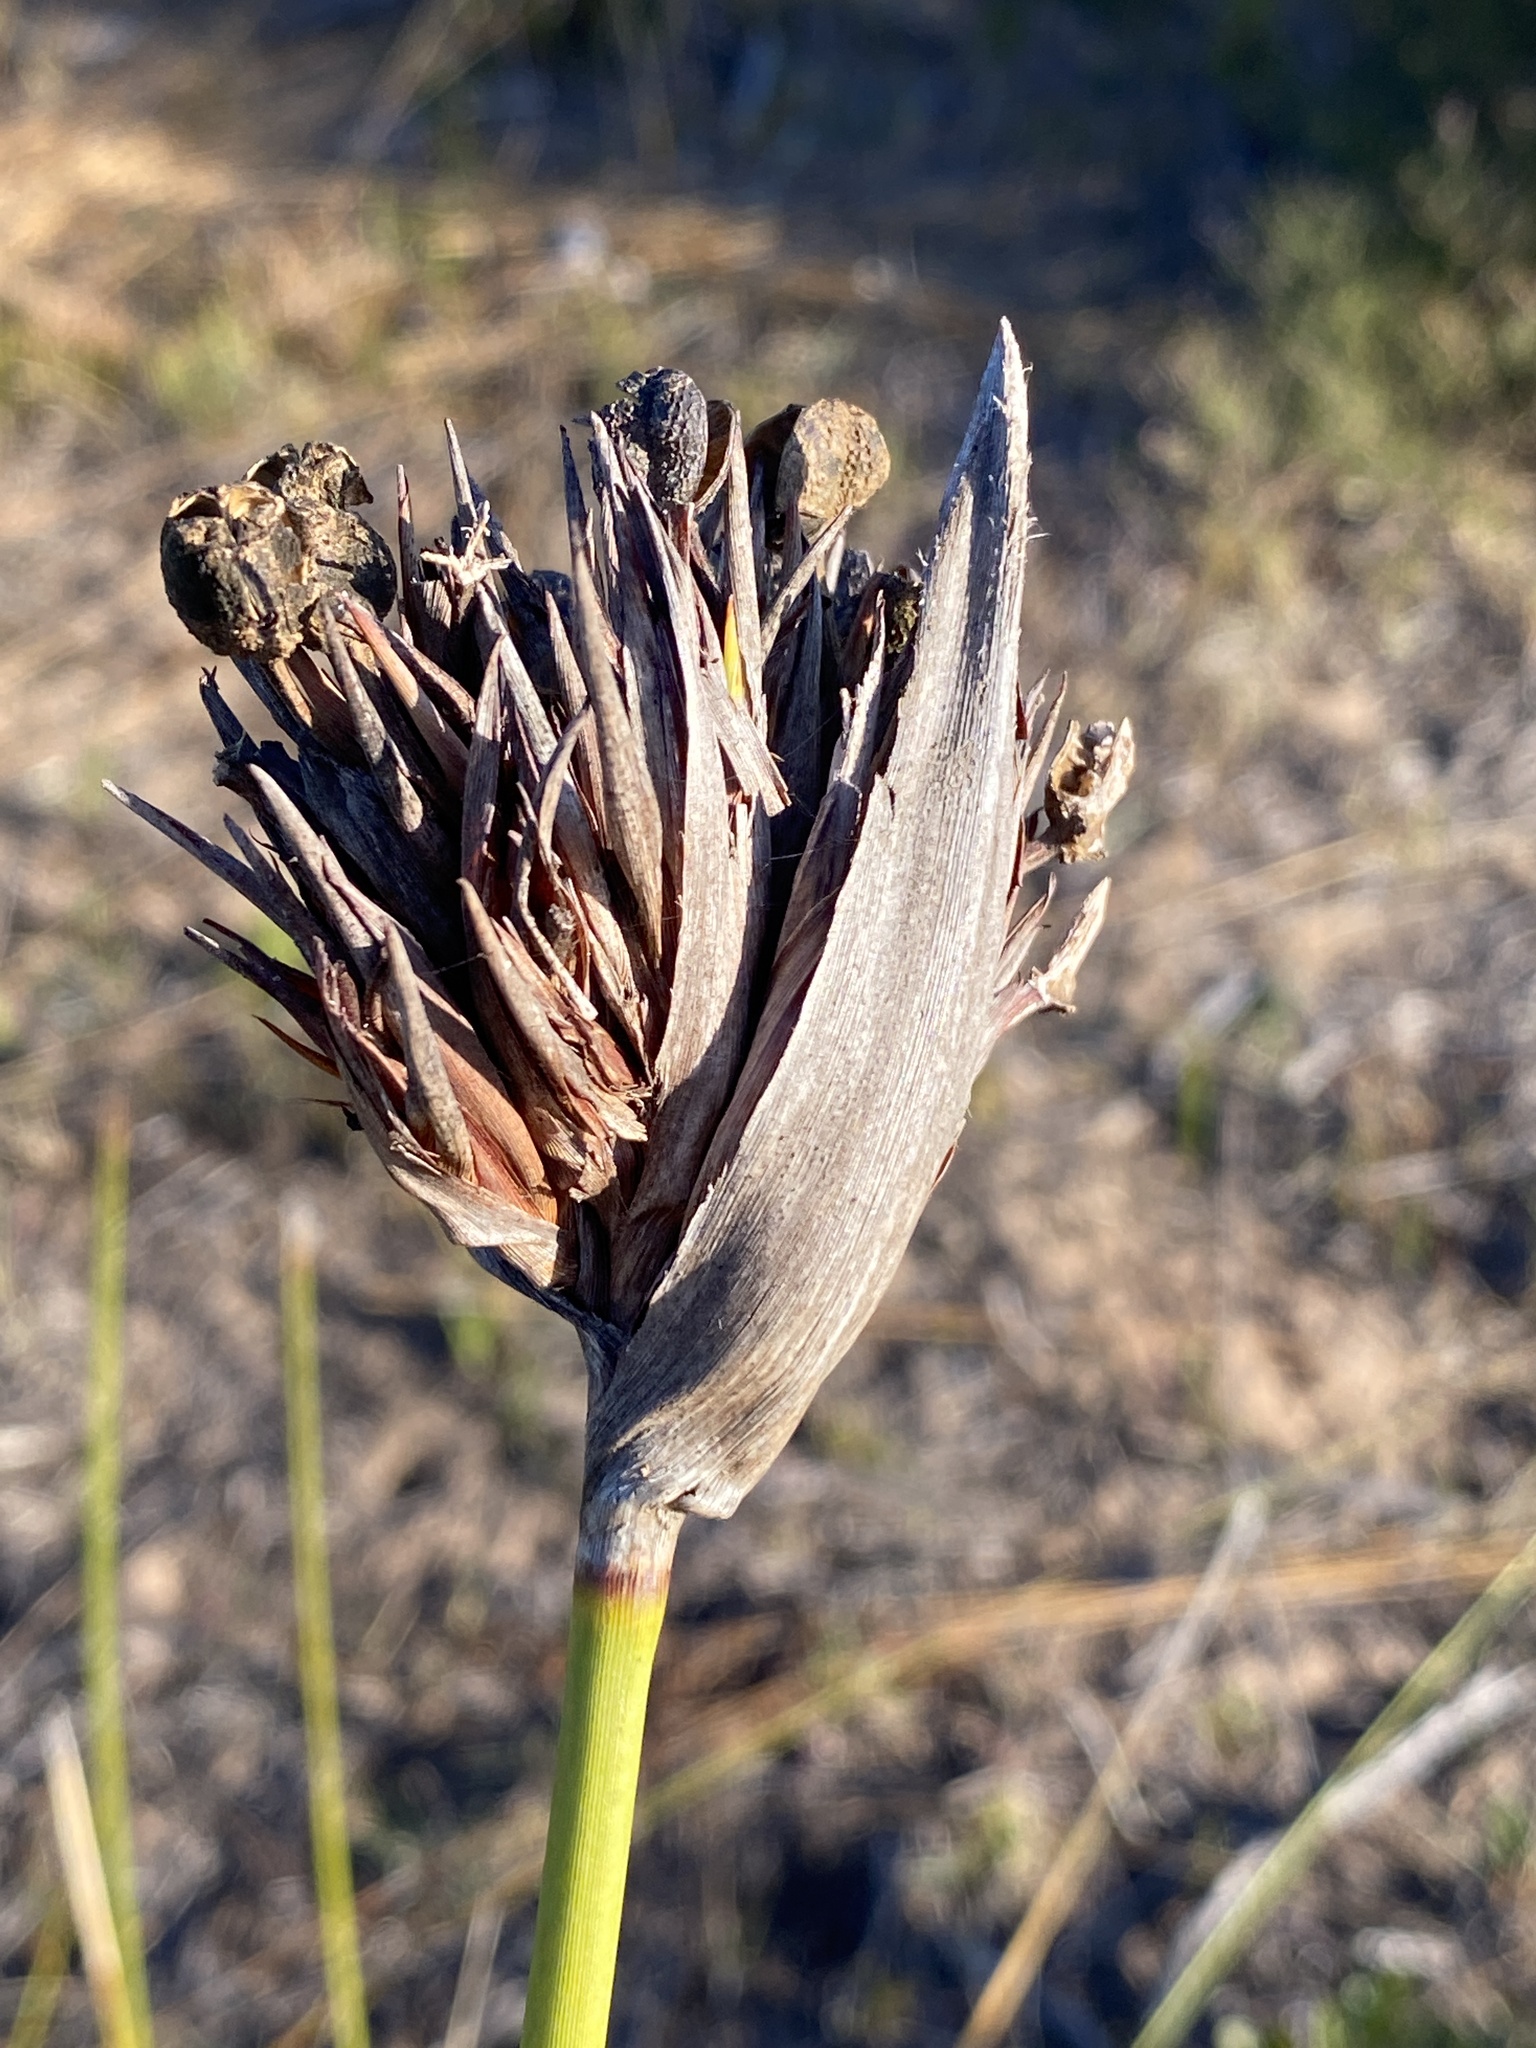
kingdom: Plantae
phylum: Tracheophyta
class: Liliopsida
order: Asparagales
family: Iridaceae
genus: Bobartia
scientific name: Bobartia robusta
